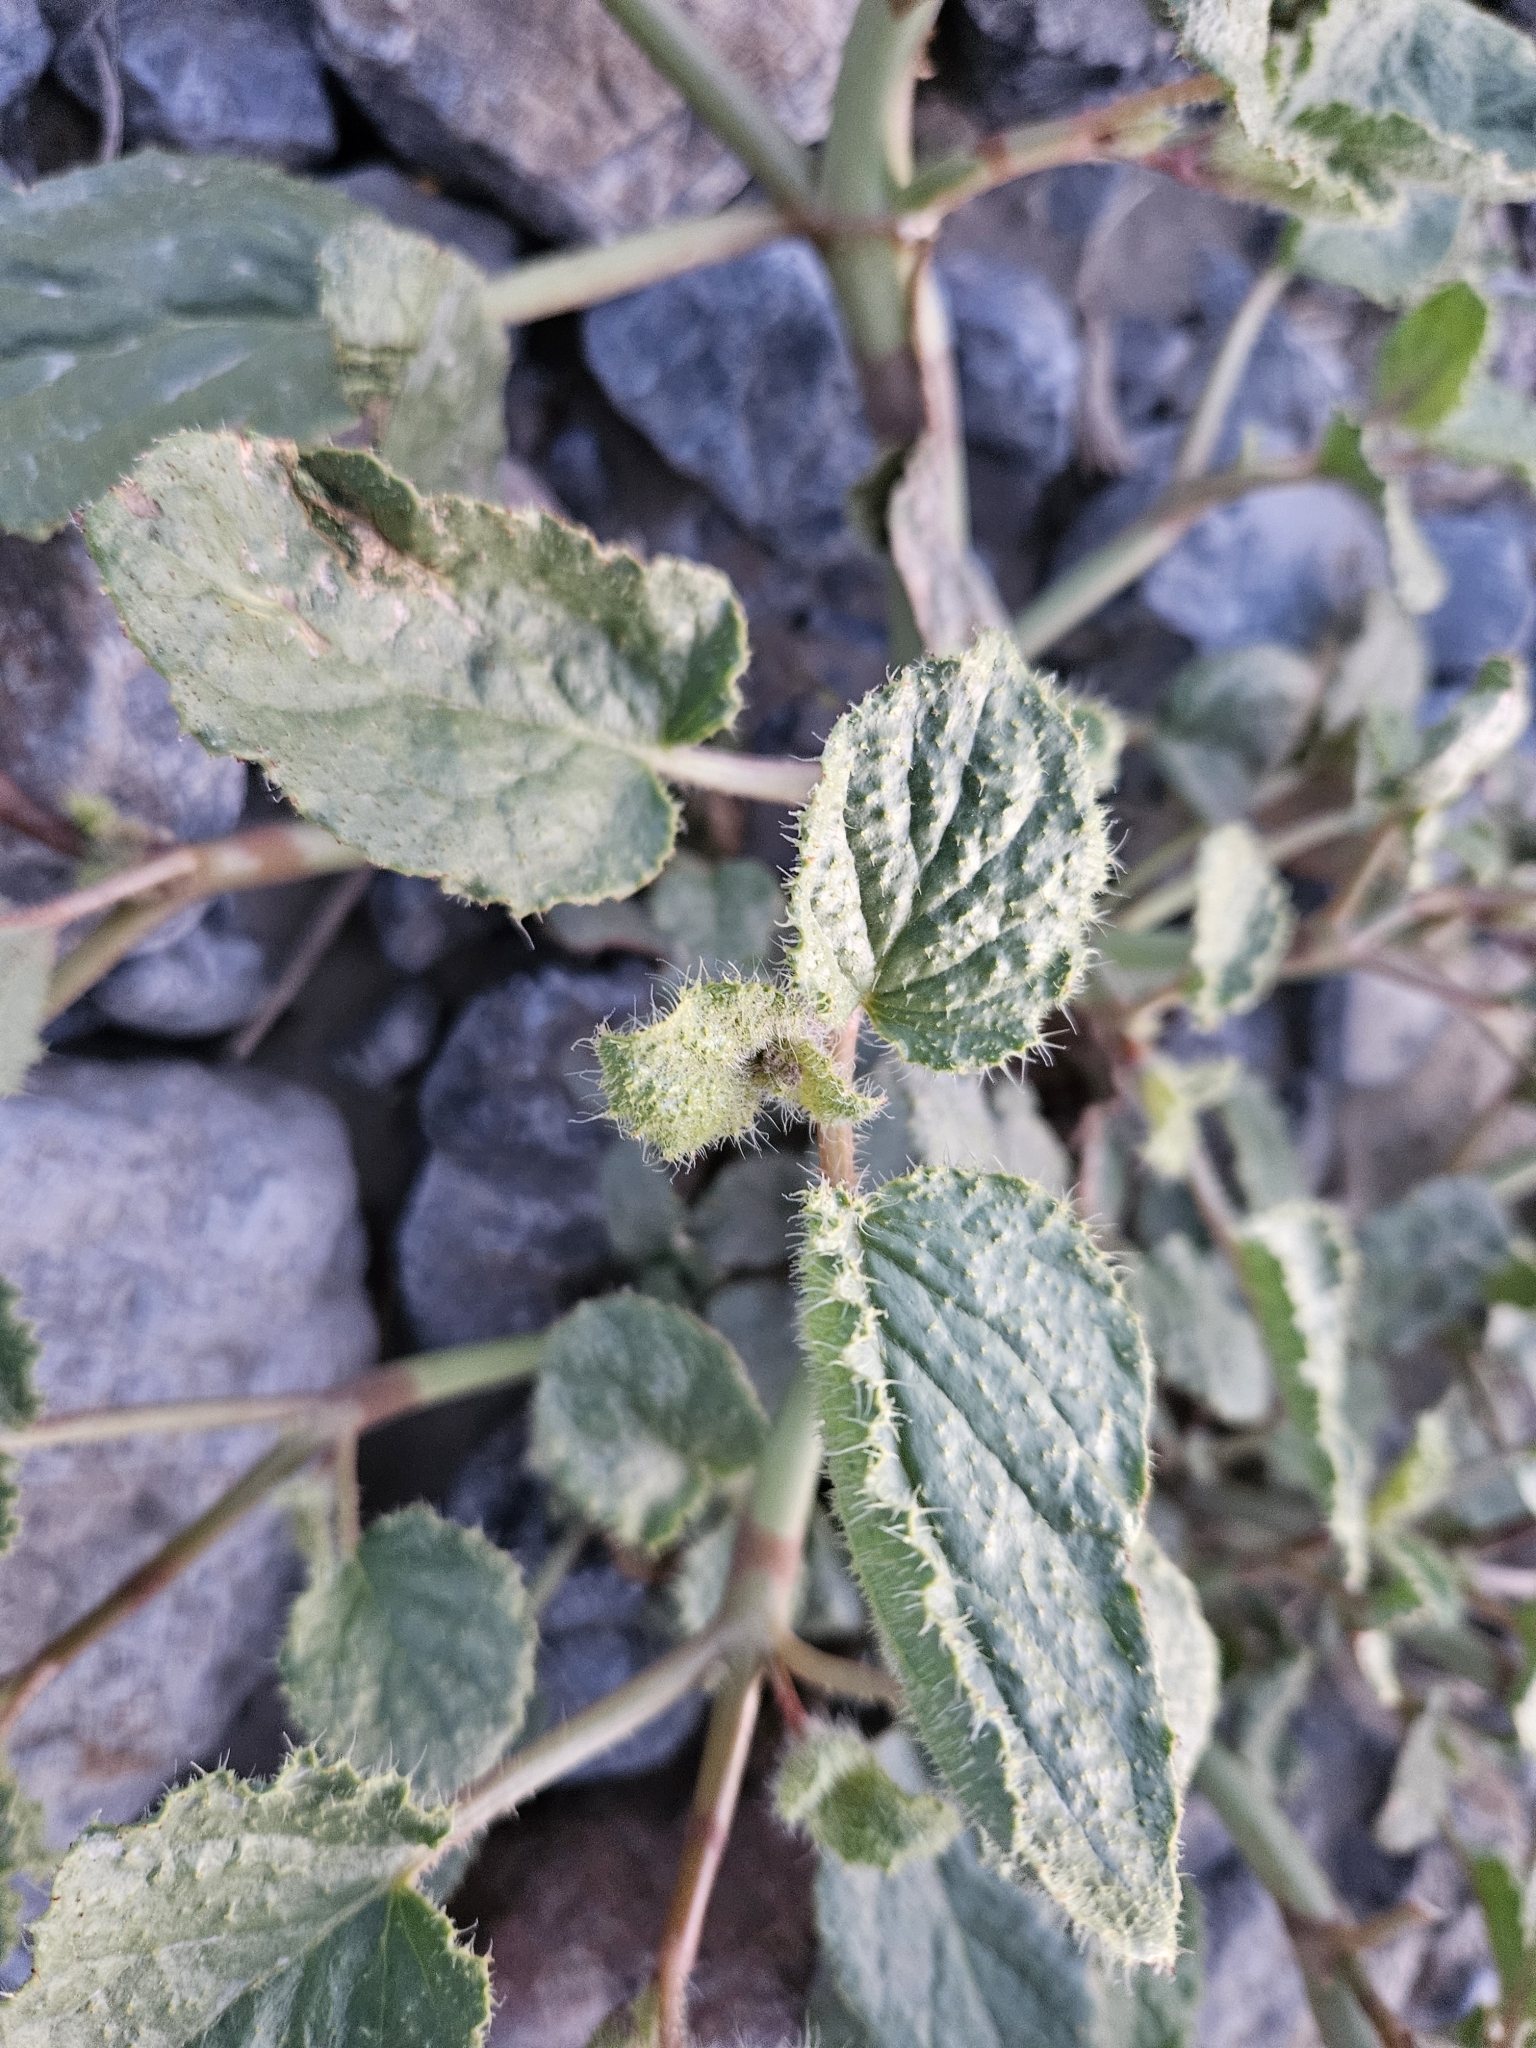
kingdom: Plantae
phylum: Tracheophyta
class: Magnoliopsida
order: Caryophyllales
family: Nyctaginaceae
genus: Anulocaulis
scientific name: Anulocaulis annulatus
